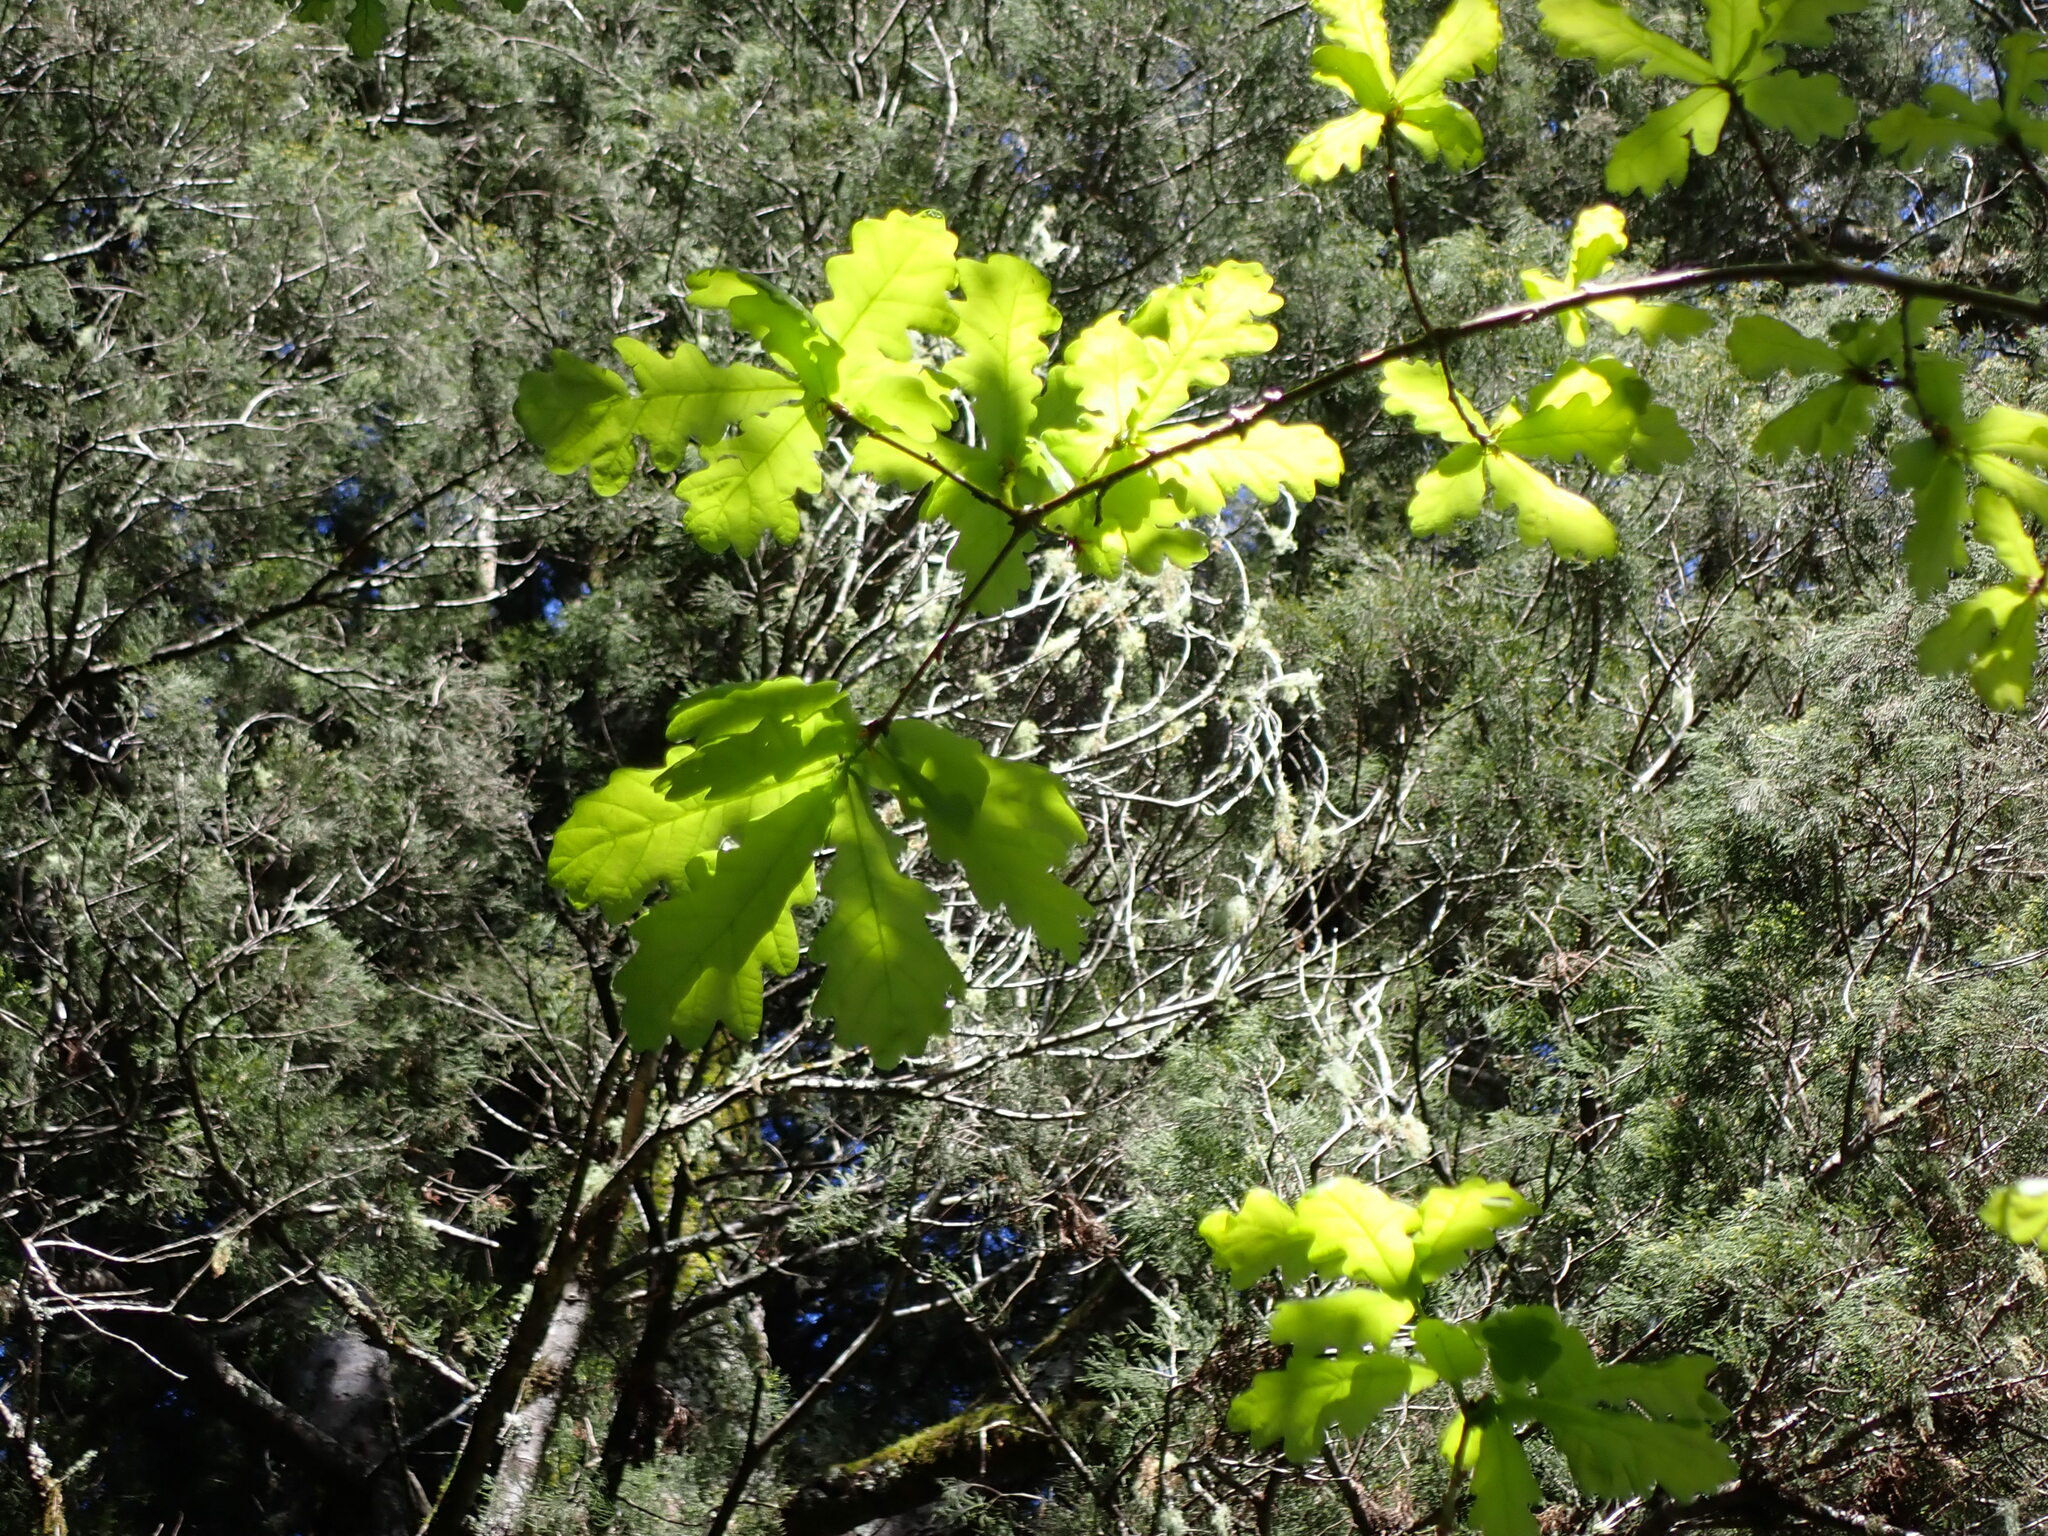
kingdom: Plantae
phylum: Tracheophyta
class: Magnoliopsida
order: Fagales
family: Fagaceae
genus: Quercus
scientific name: Quercus robur
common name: Pedunculate oak
